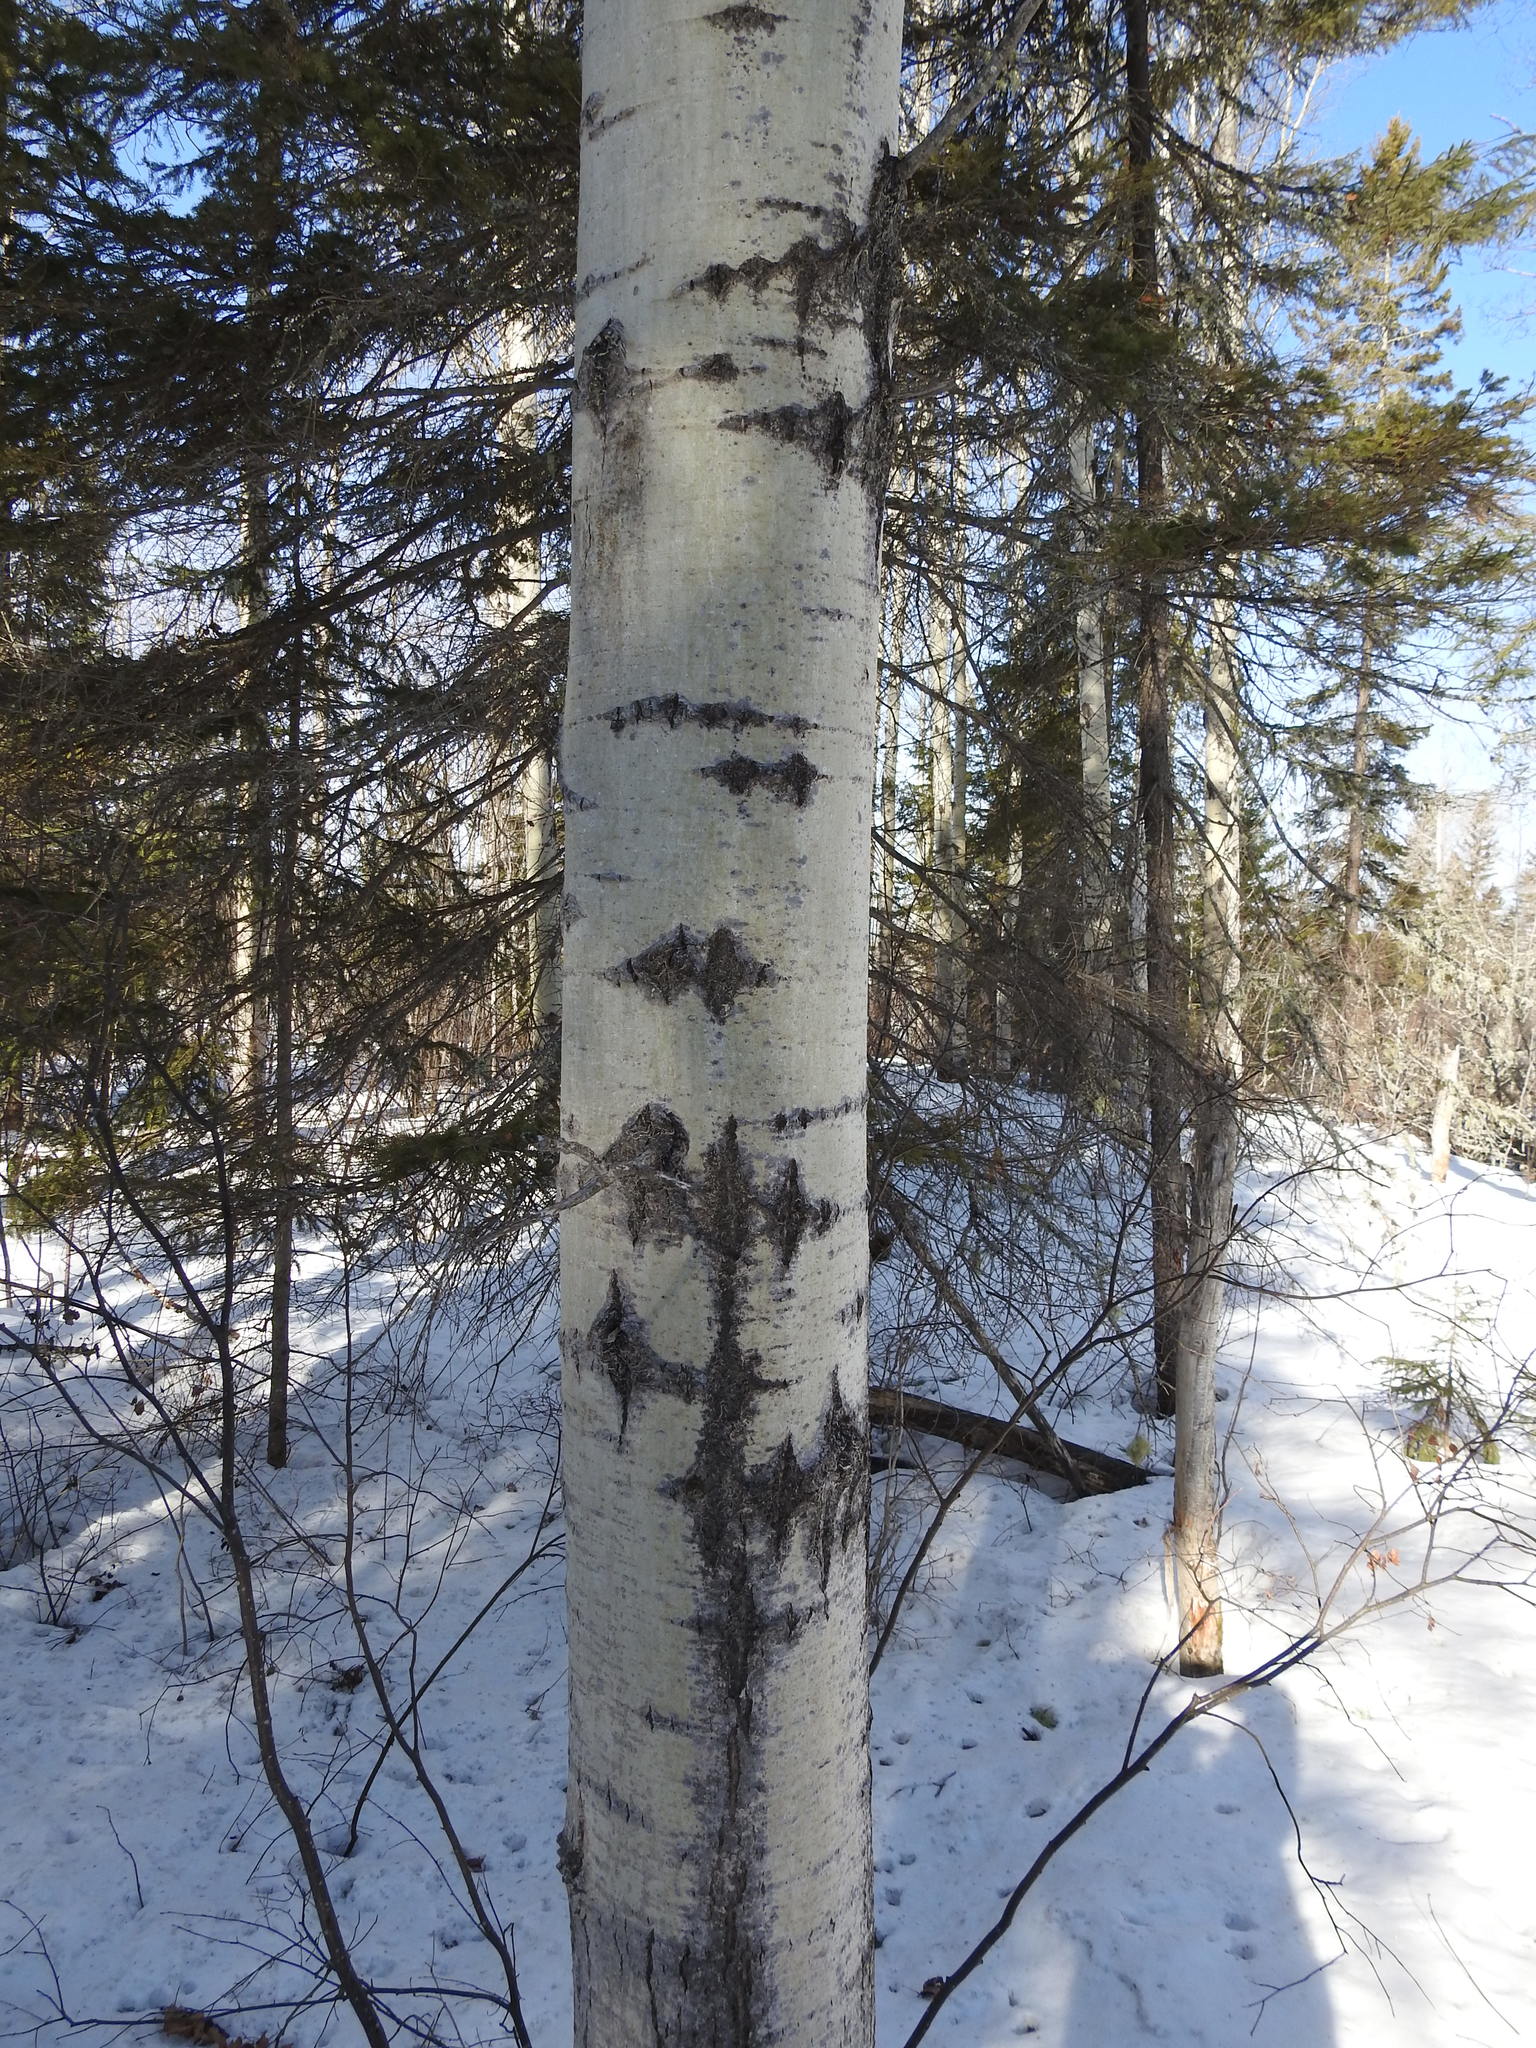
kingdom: Plantae
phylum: Tracheophyta
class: Magnoliopsida
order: Malpighiales
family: Salicaceae
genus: Populus
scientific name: Populus tremuloides
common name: Quaking aspen
